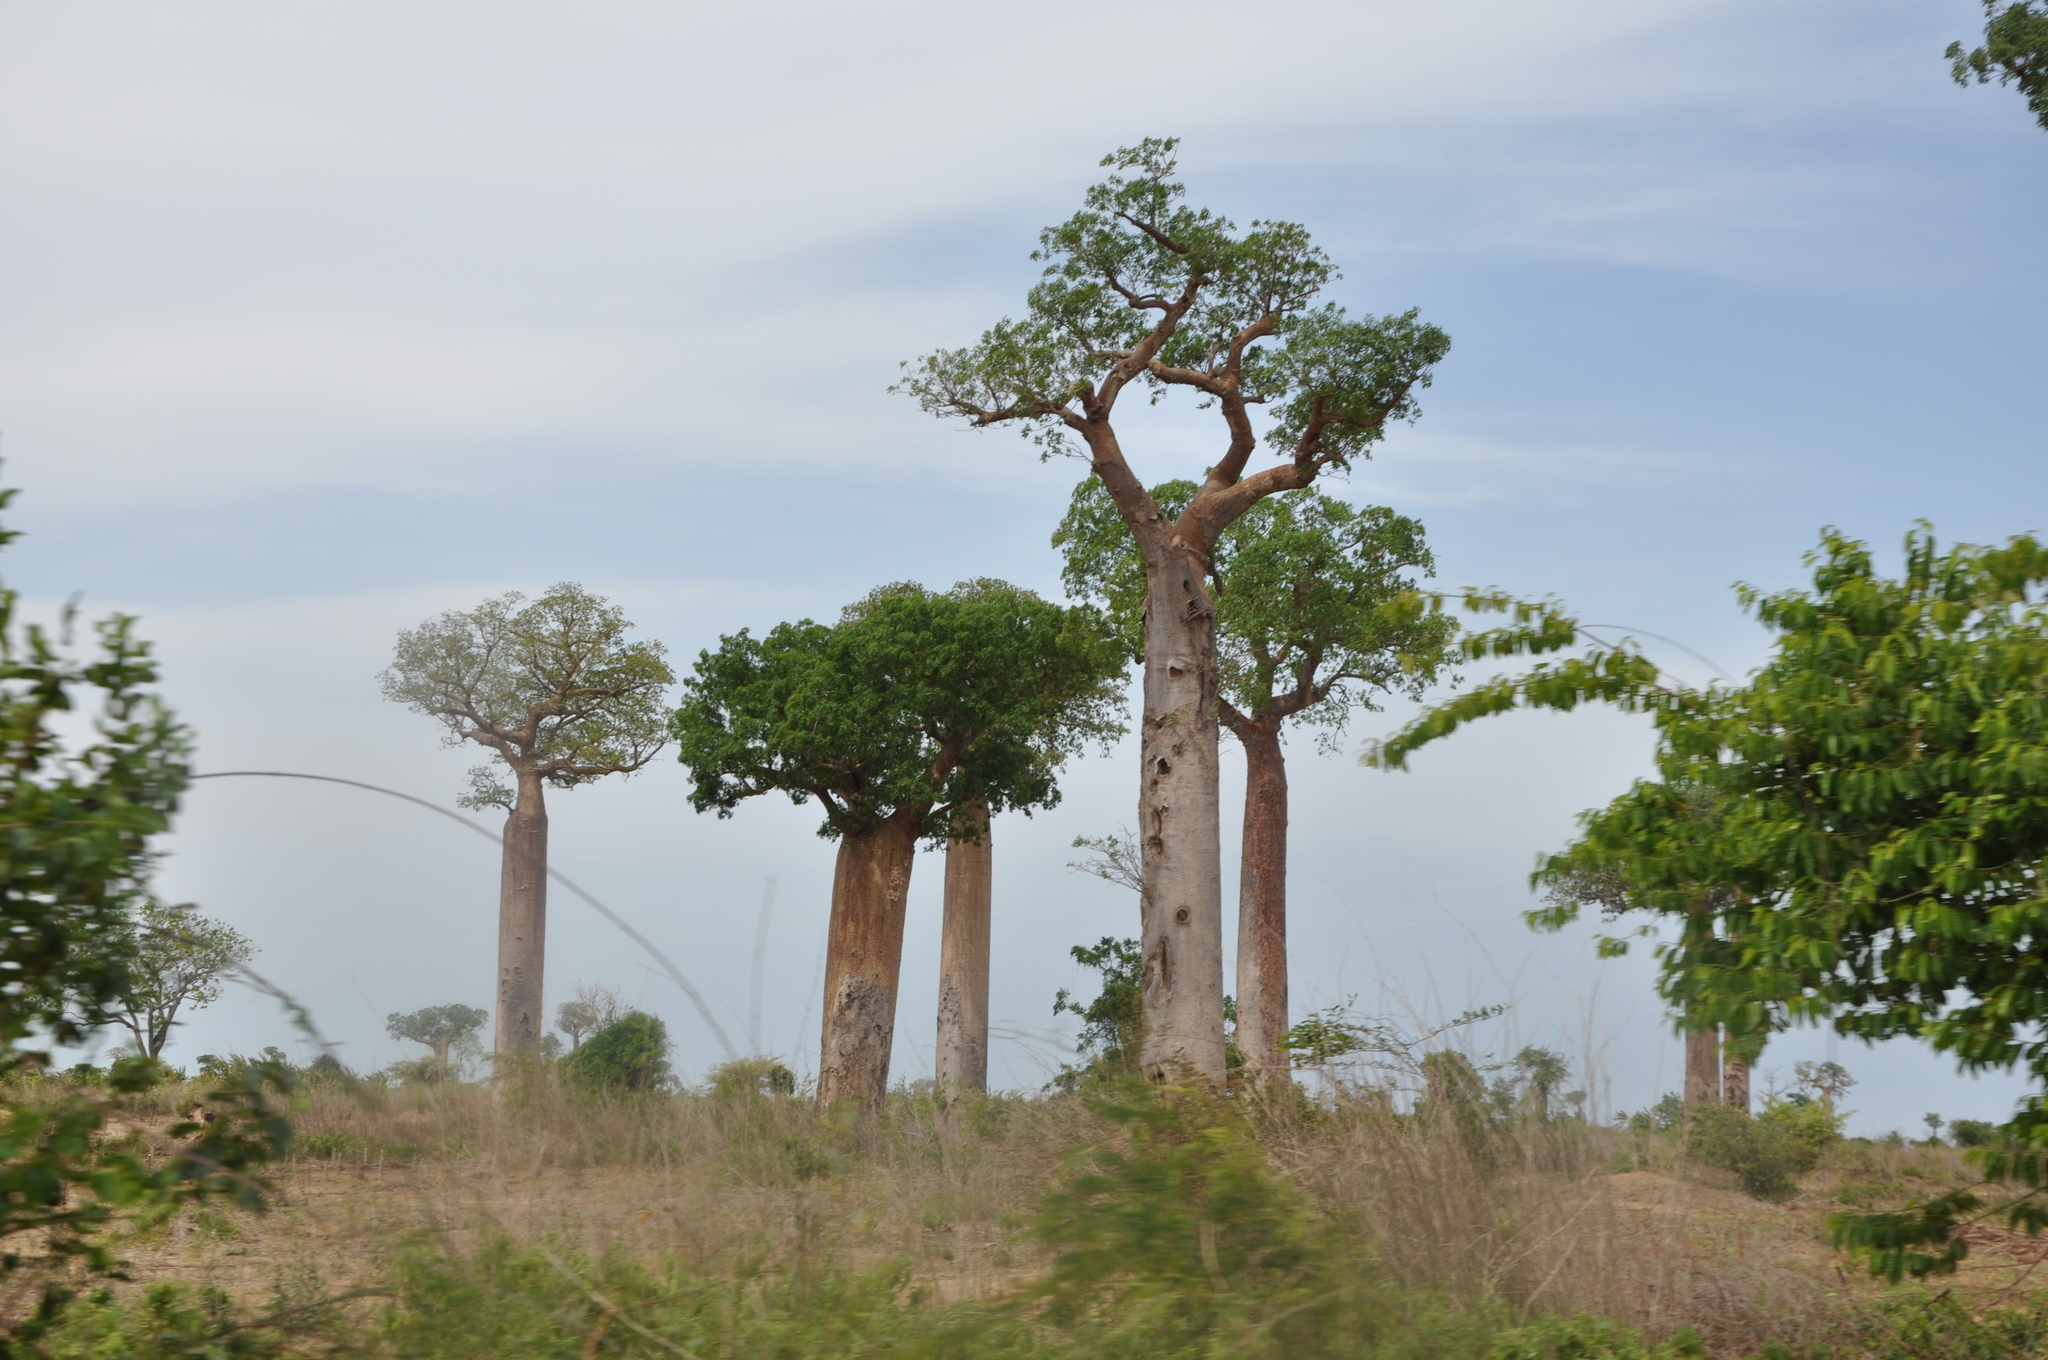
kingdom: Plantae
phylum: Tracheophyta
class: Magnoliopsida
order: Malvales
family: Malvaceae
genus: Adansonia
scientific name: Adansonia za
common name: Za baobab
